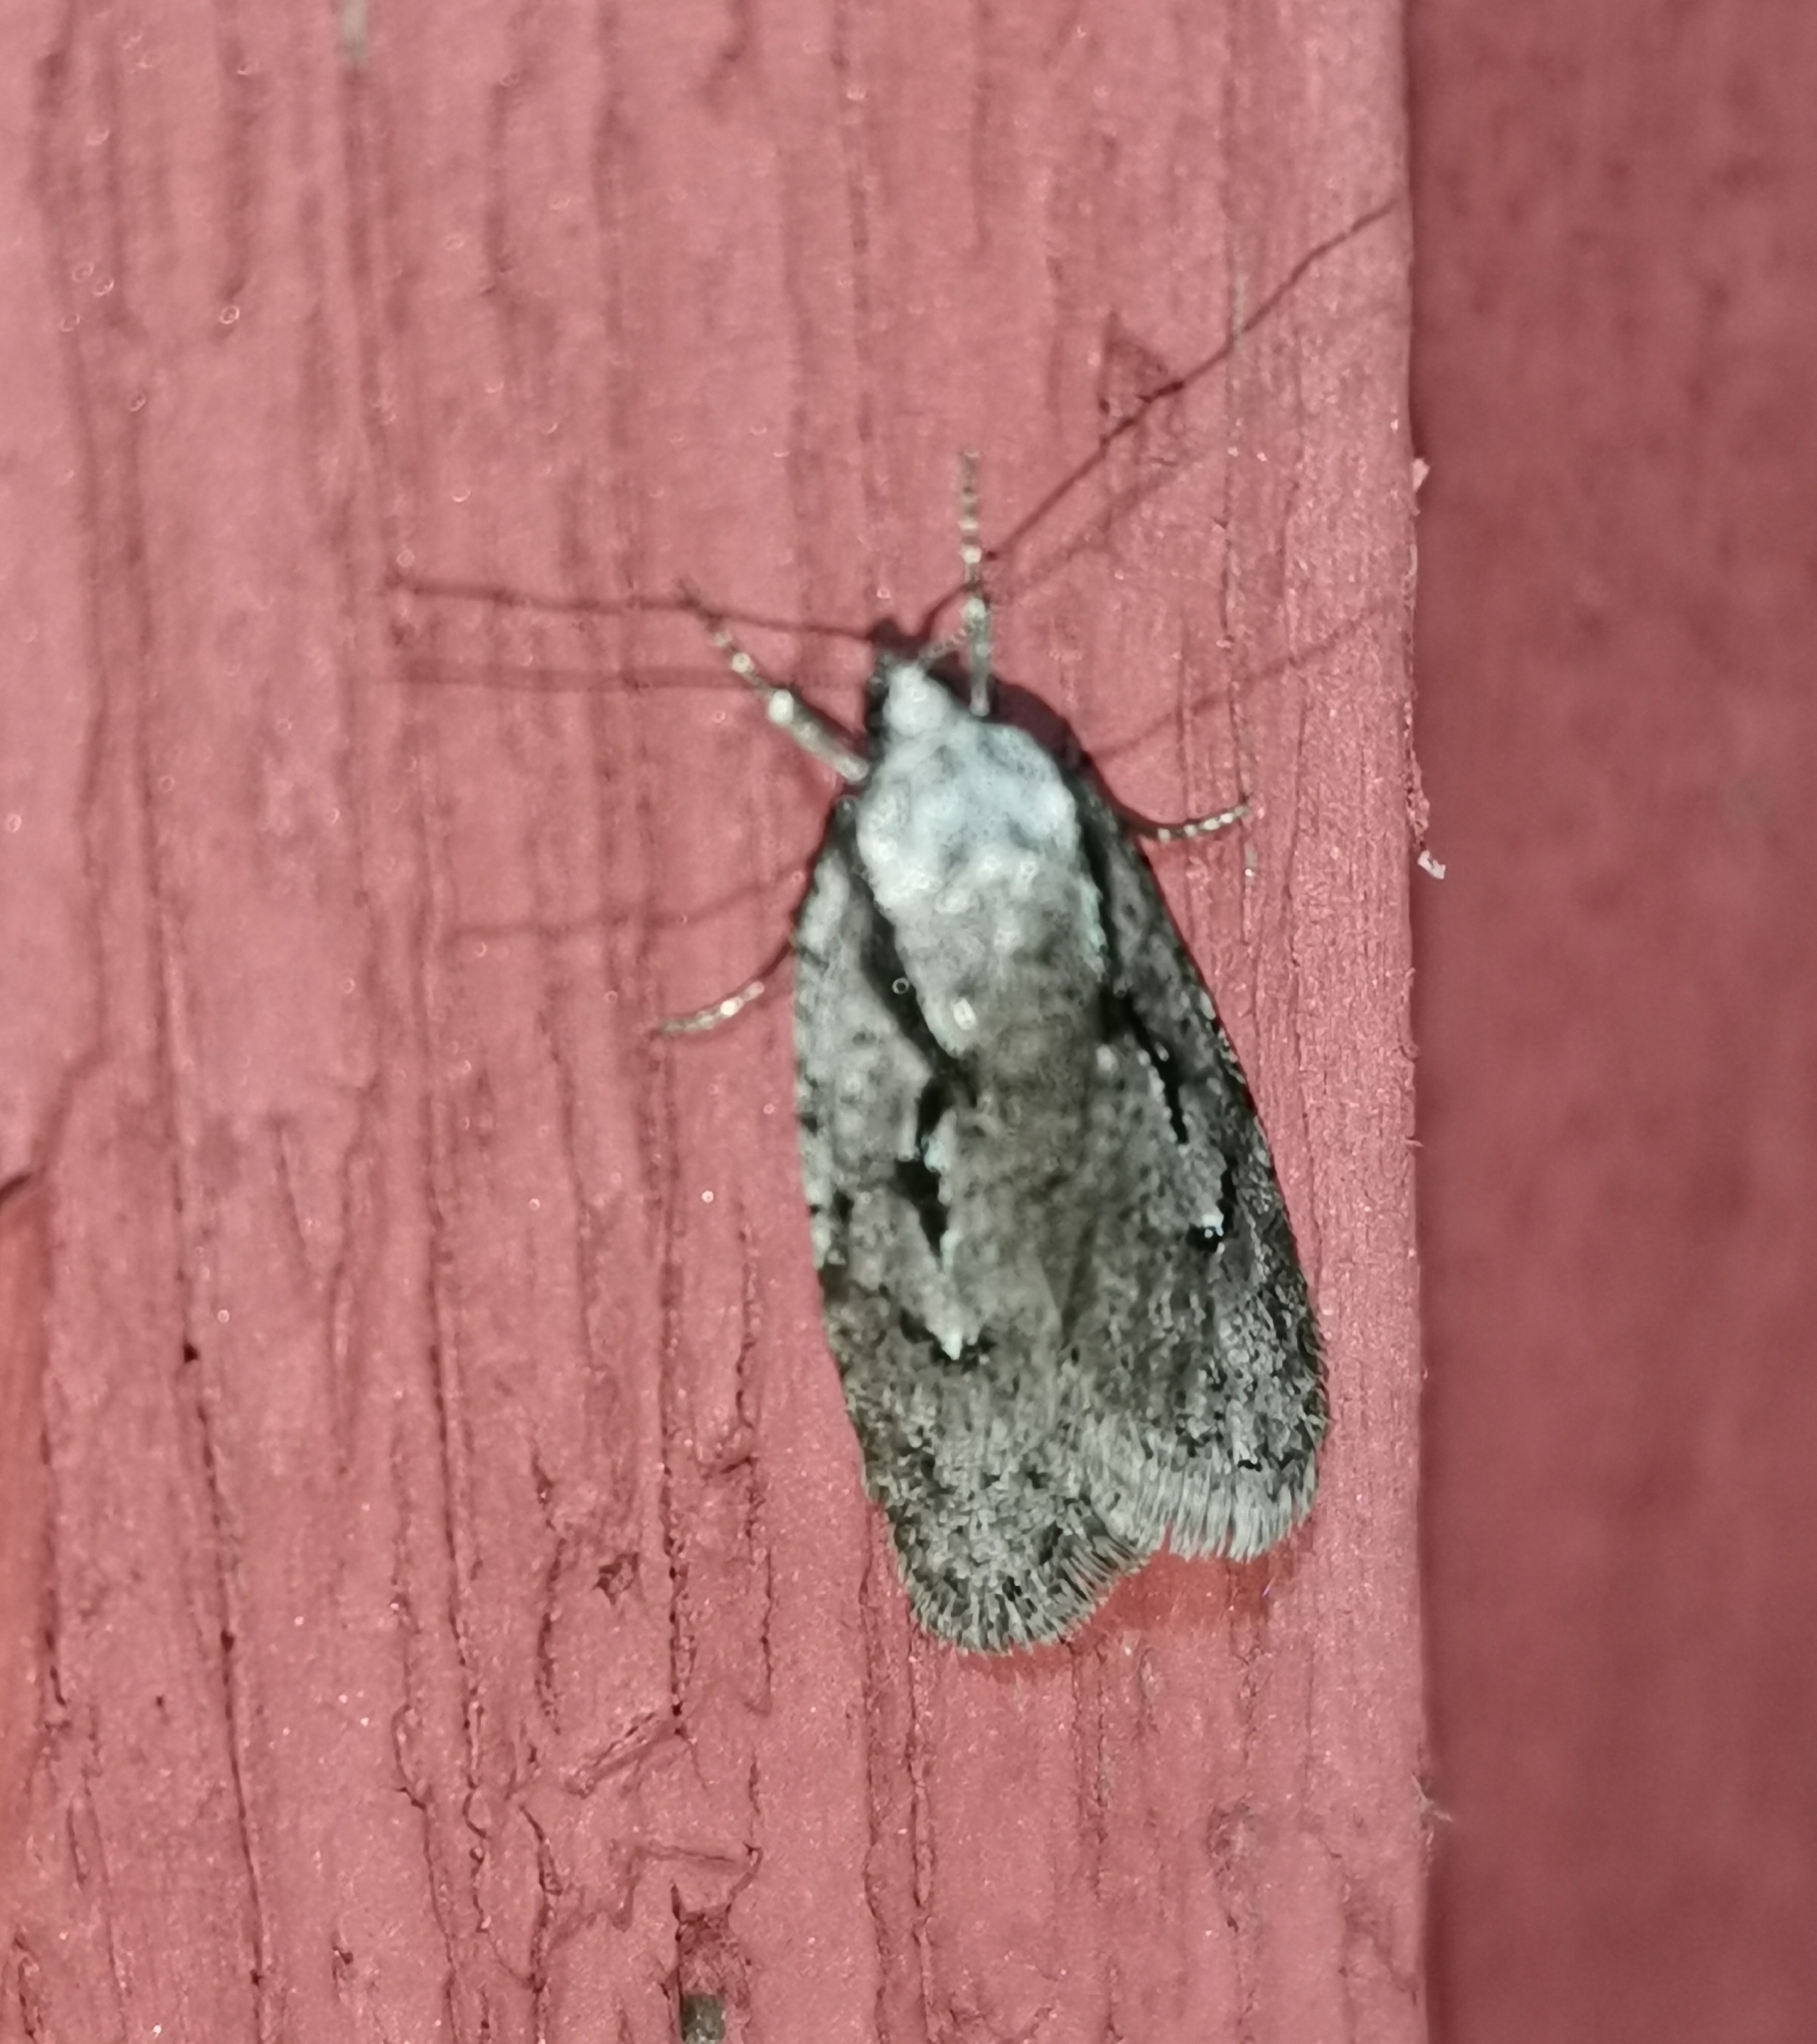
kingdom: Animalia
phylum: Arthropoda
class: Insecta
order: Lepidoptera
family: Depressariidae
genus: Semioscopis
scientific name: Semioscopis avellanella
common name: Early flat-body
